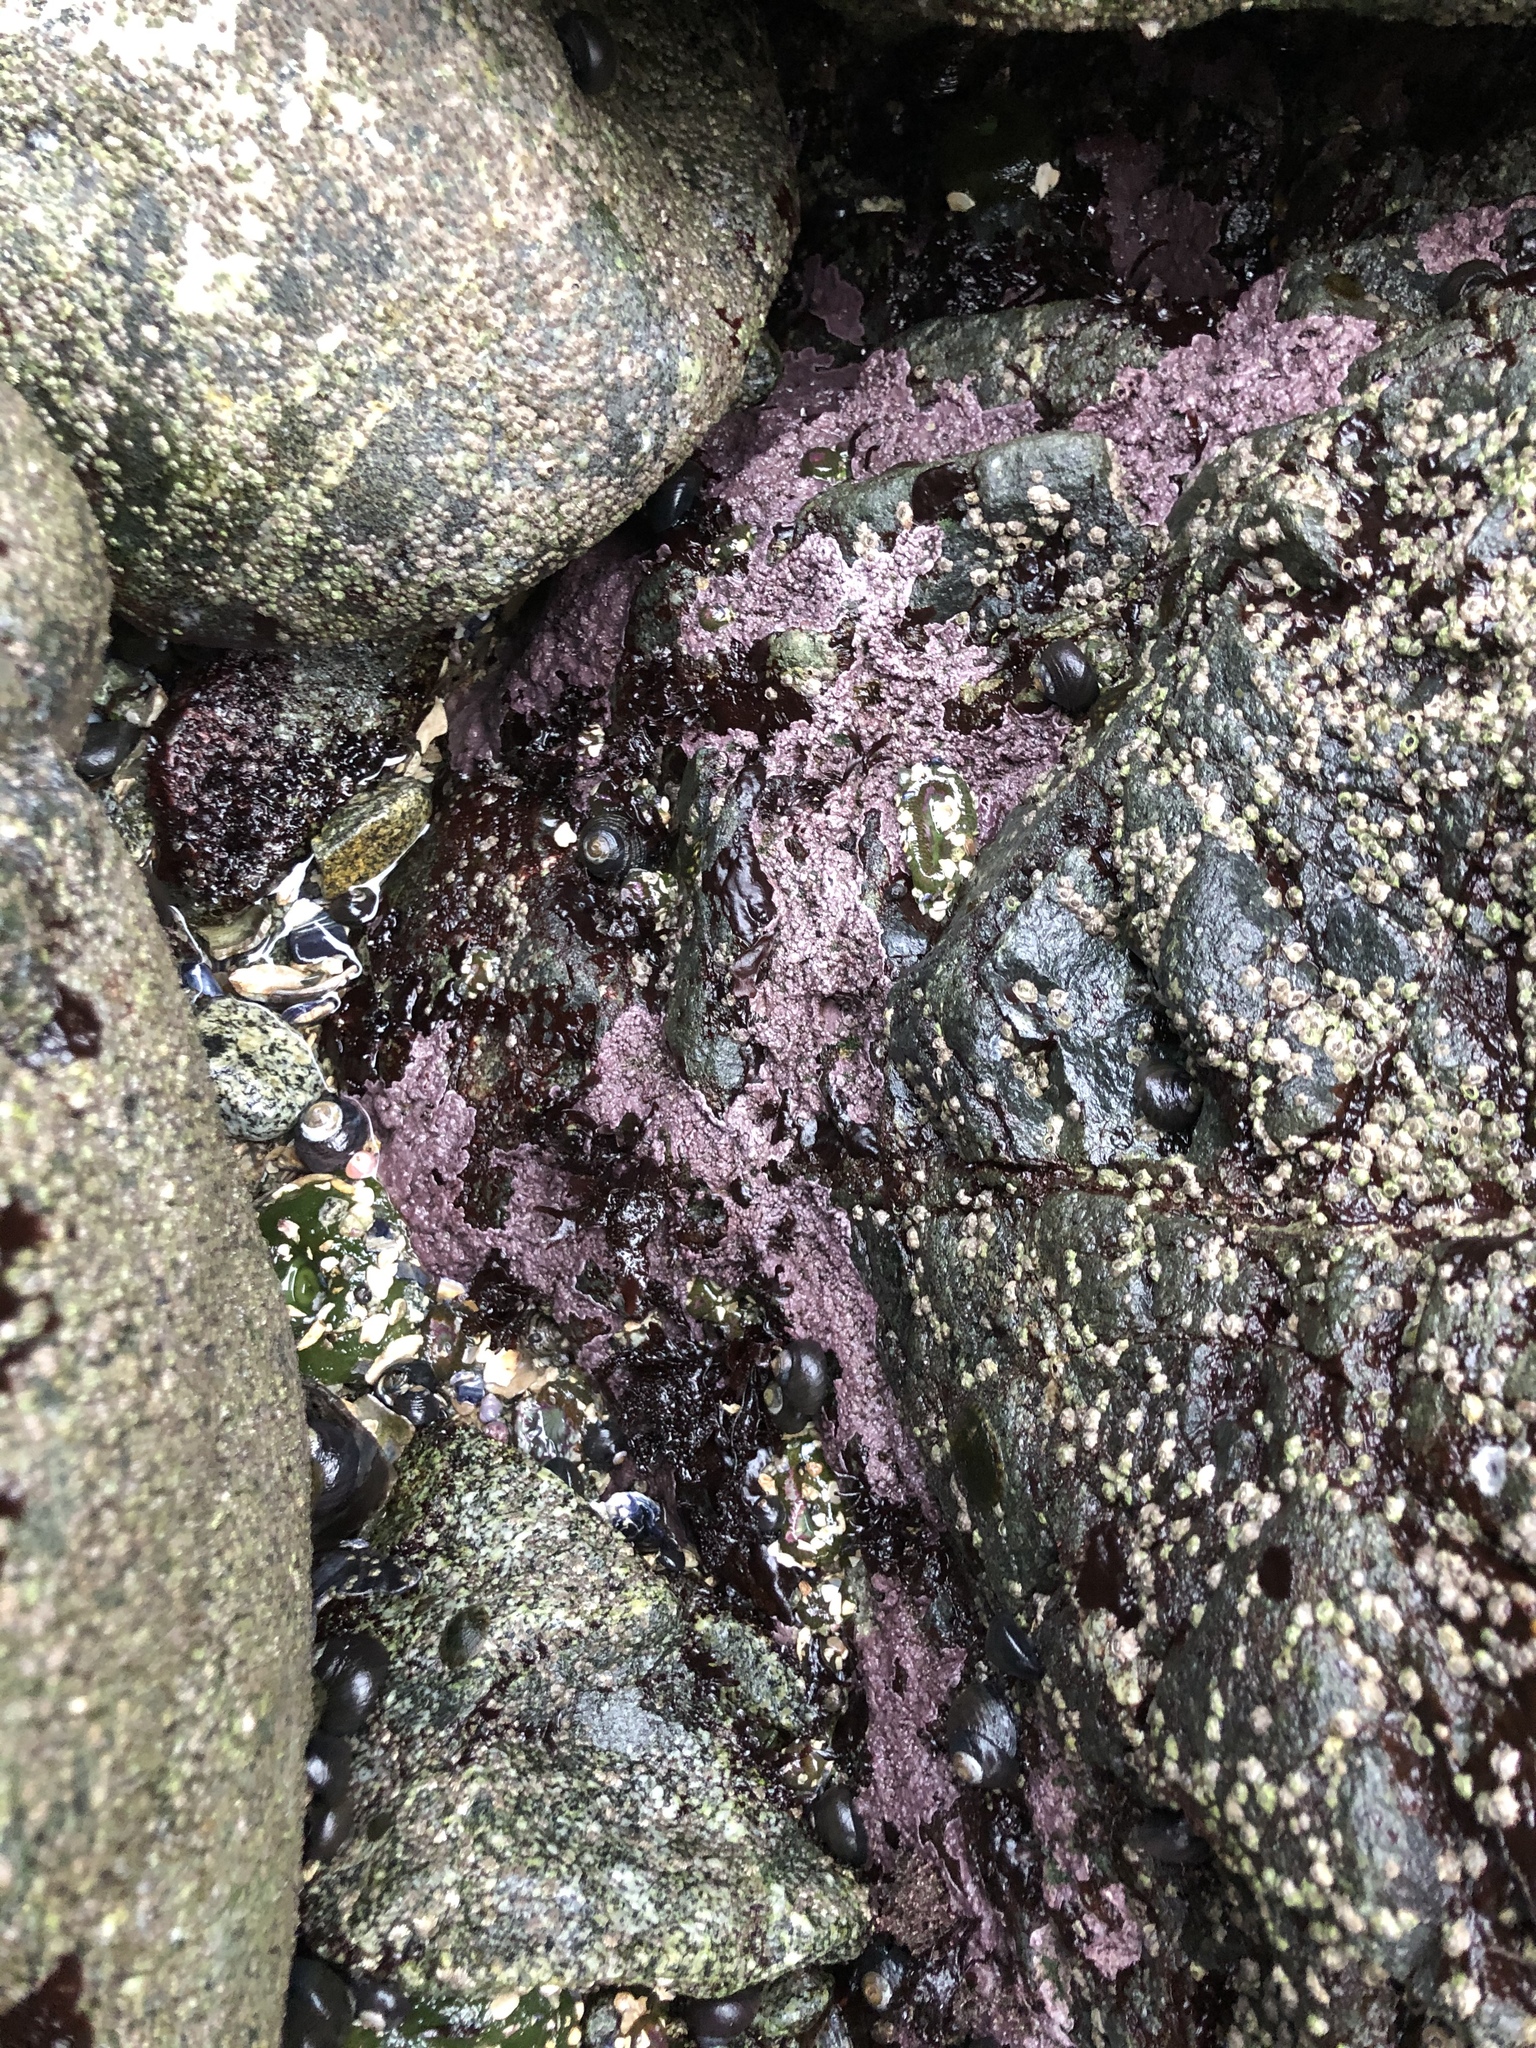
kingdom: Plantae
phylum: Rhodophyta
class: Florideophyceae
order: Corallinales
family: Corallinaceae
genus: Chamberlainium
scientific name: Chamberlainium tumidum
